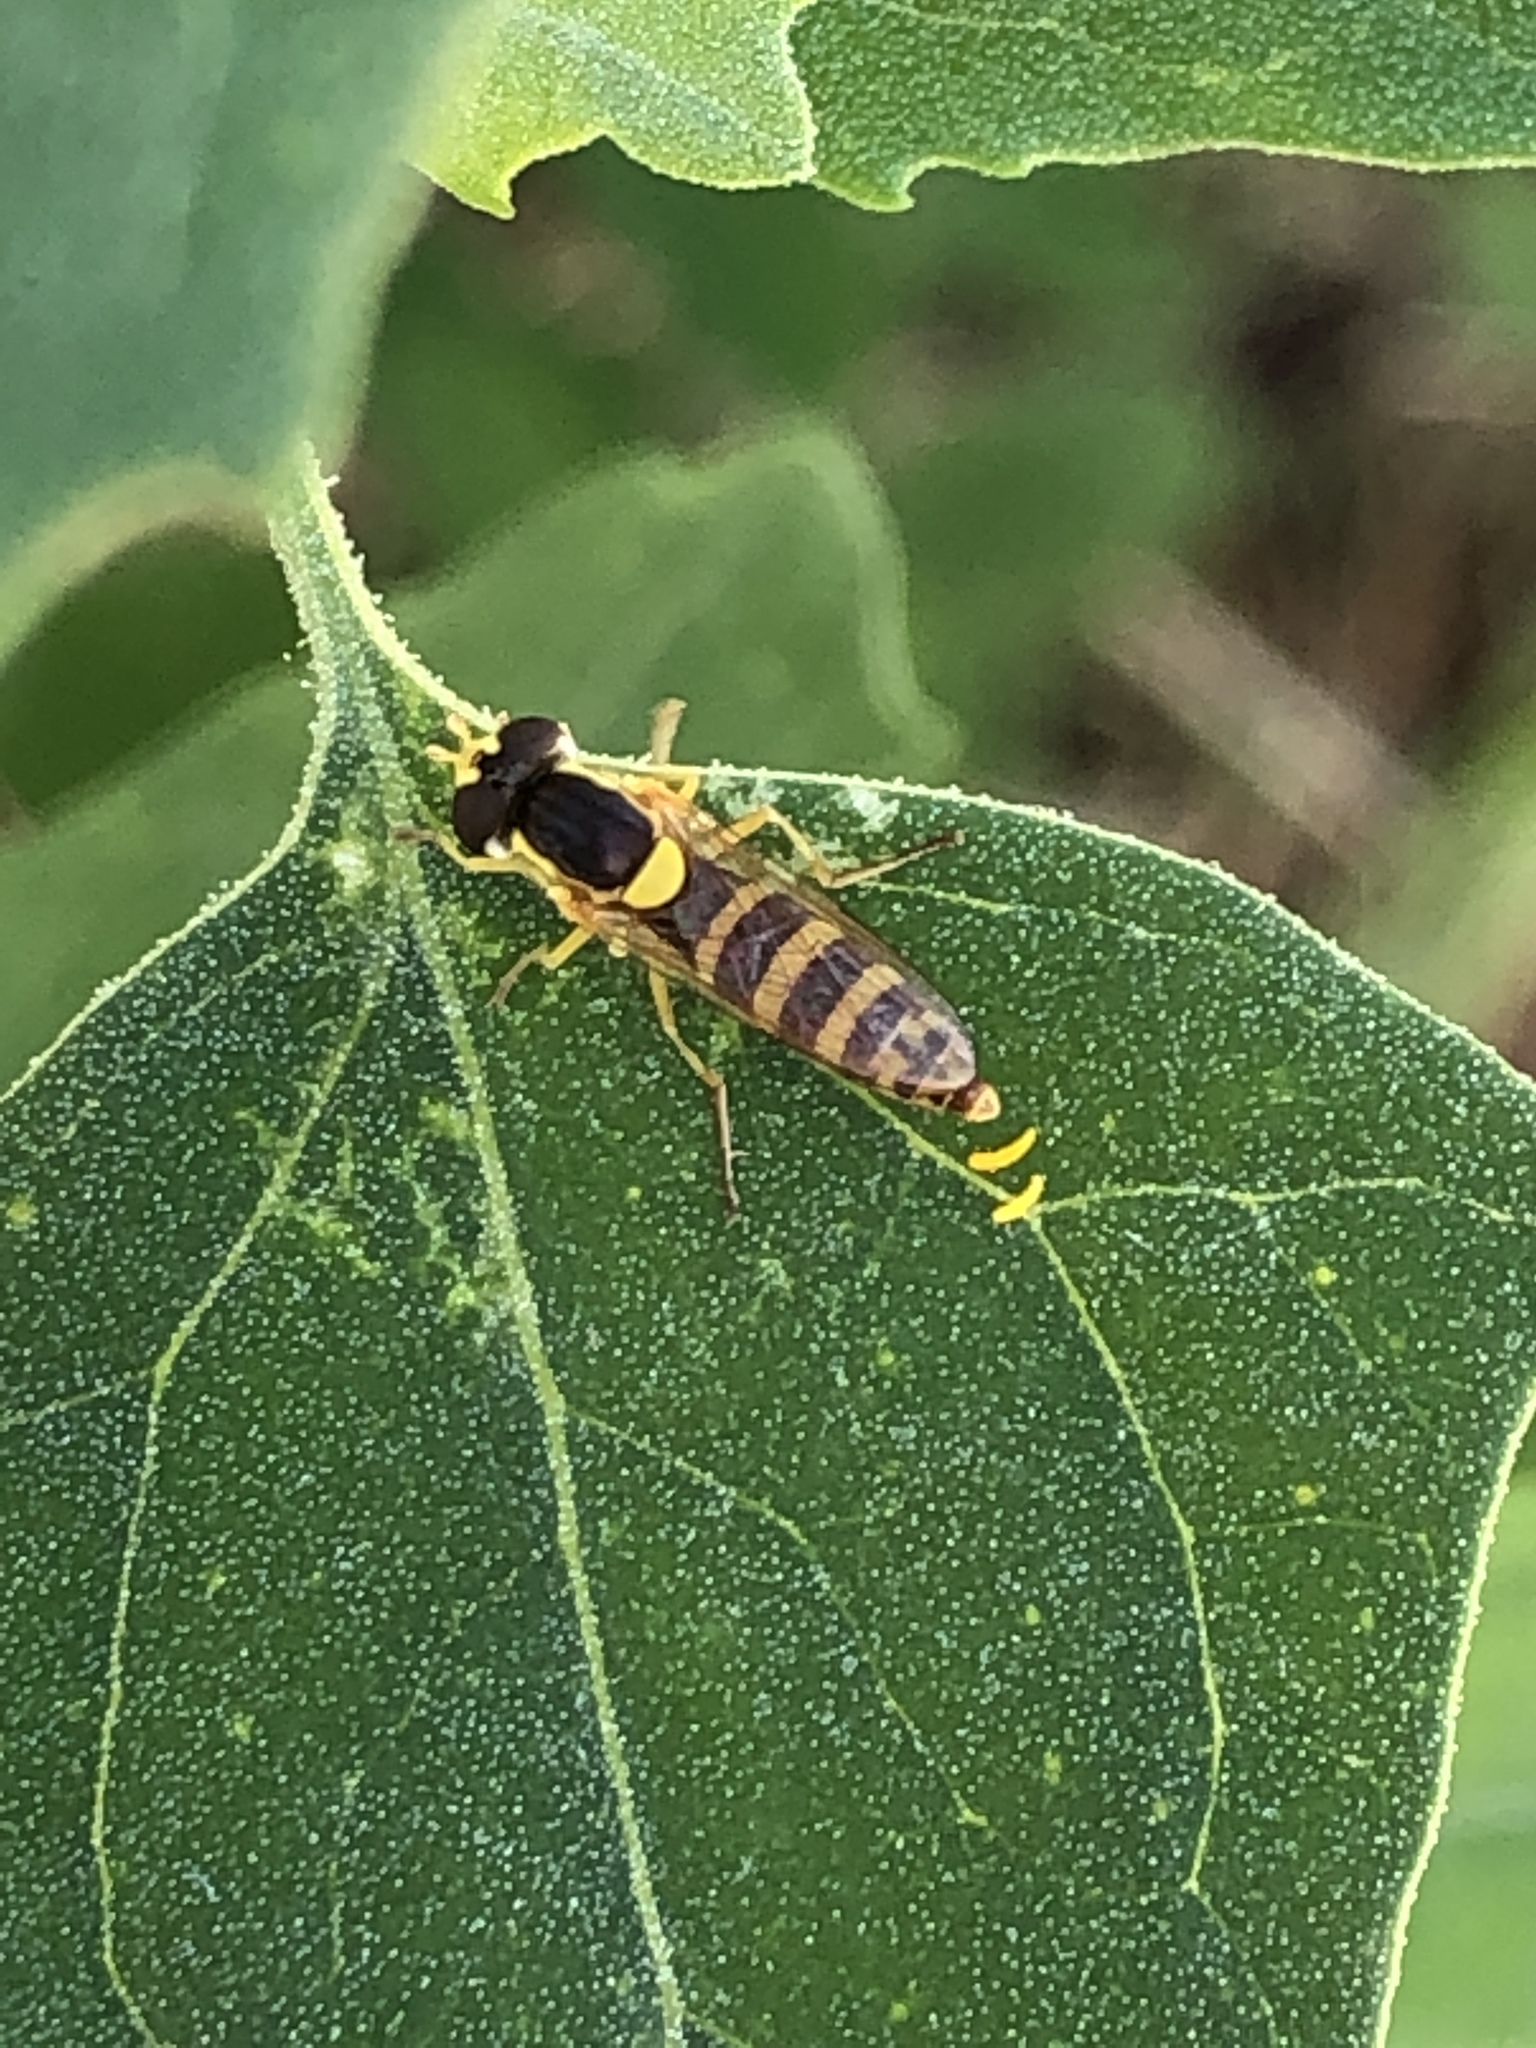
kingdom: Animalia
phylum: Arthropoda
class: Insecta
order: Diptera
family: Syrphidae
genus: Sphaerophoria
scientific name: Sphaerophoria
